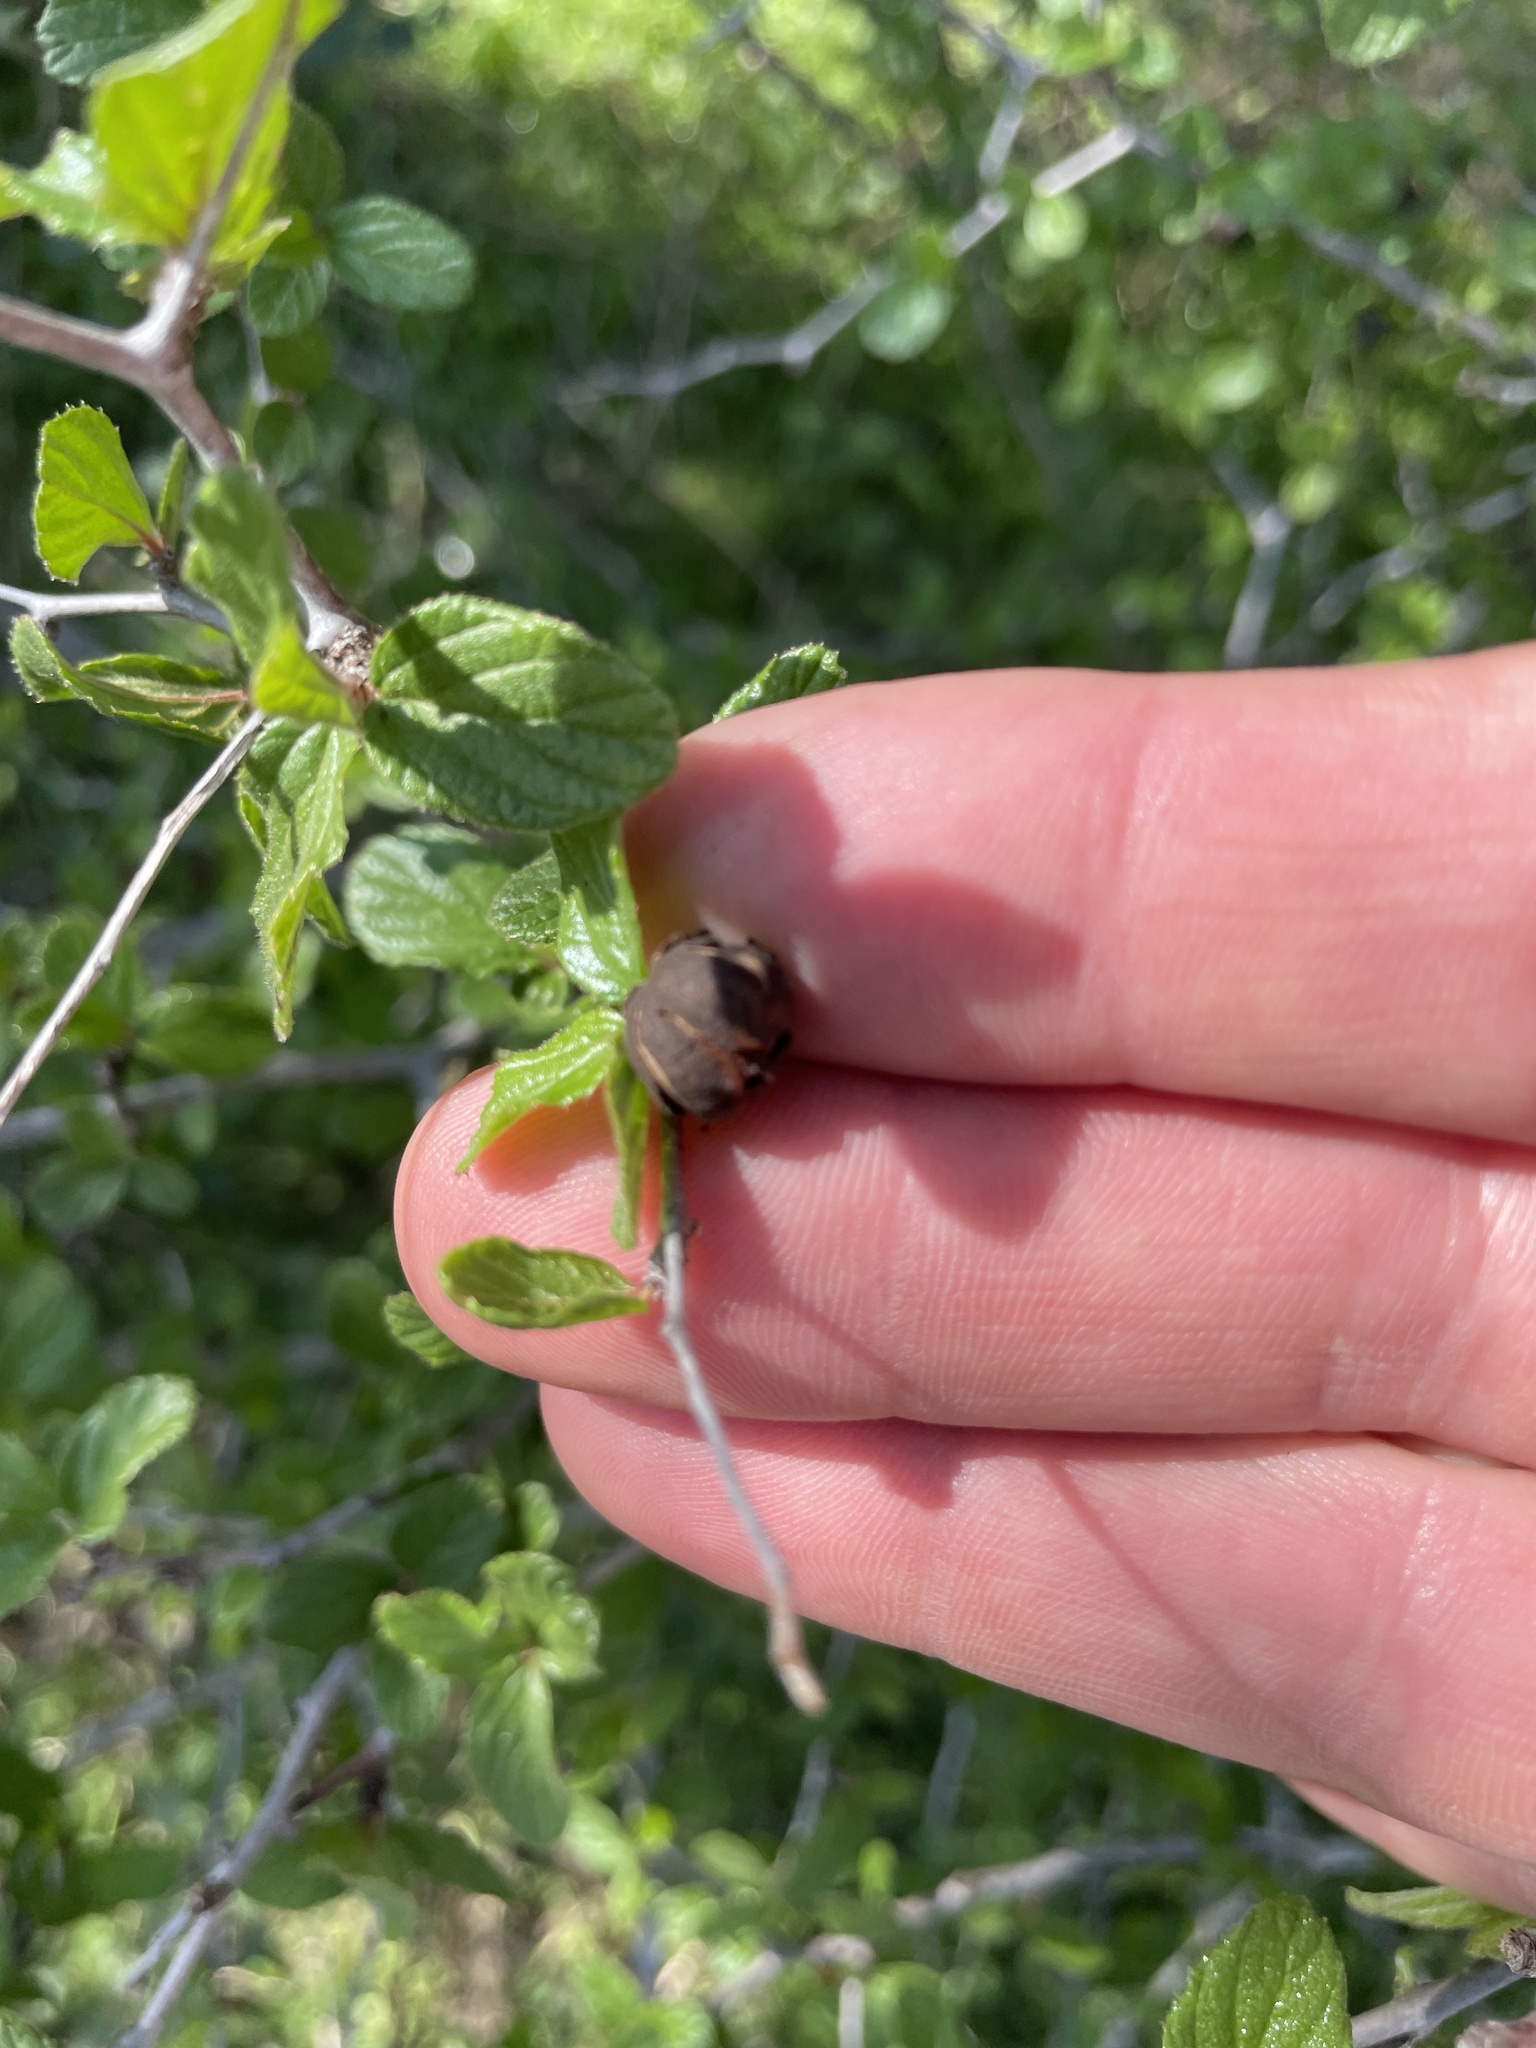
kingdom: Plantae
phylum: Tracheophyta
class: Magnoliopsida
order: Rosales
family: Rhamnaceae
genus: Colubrina
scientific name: Colubrina texensis
